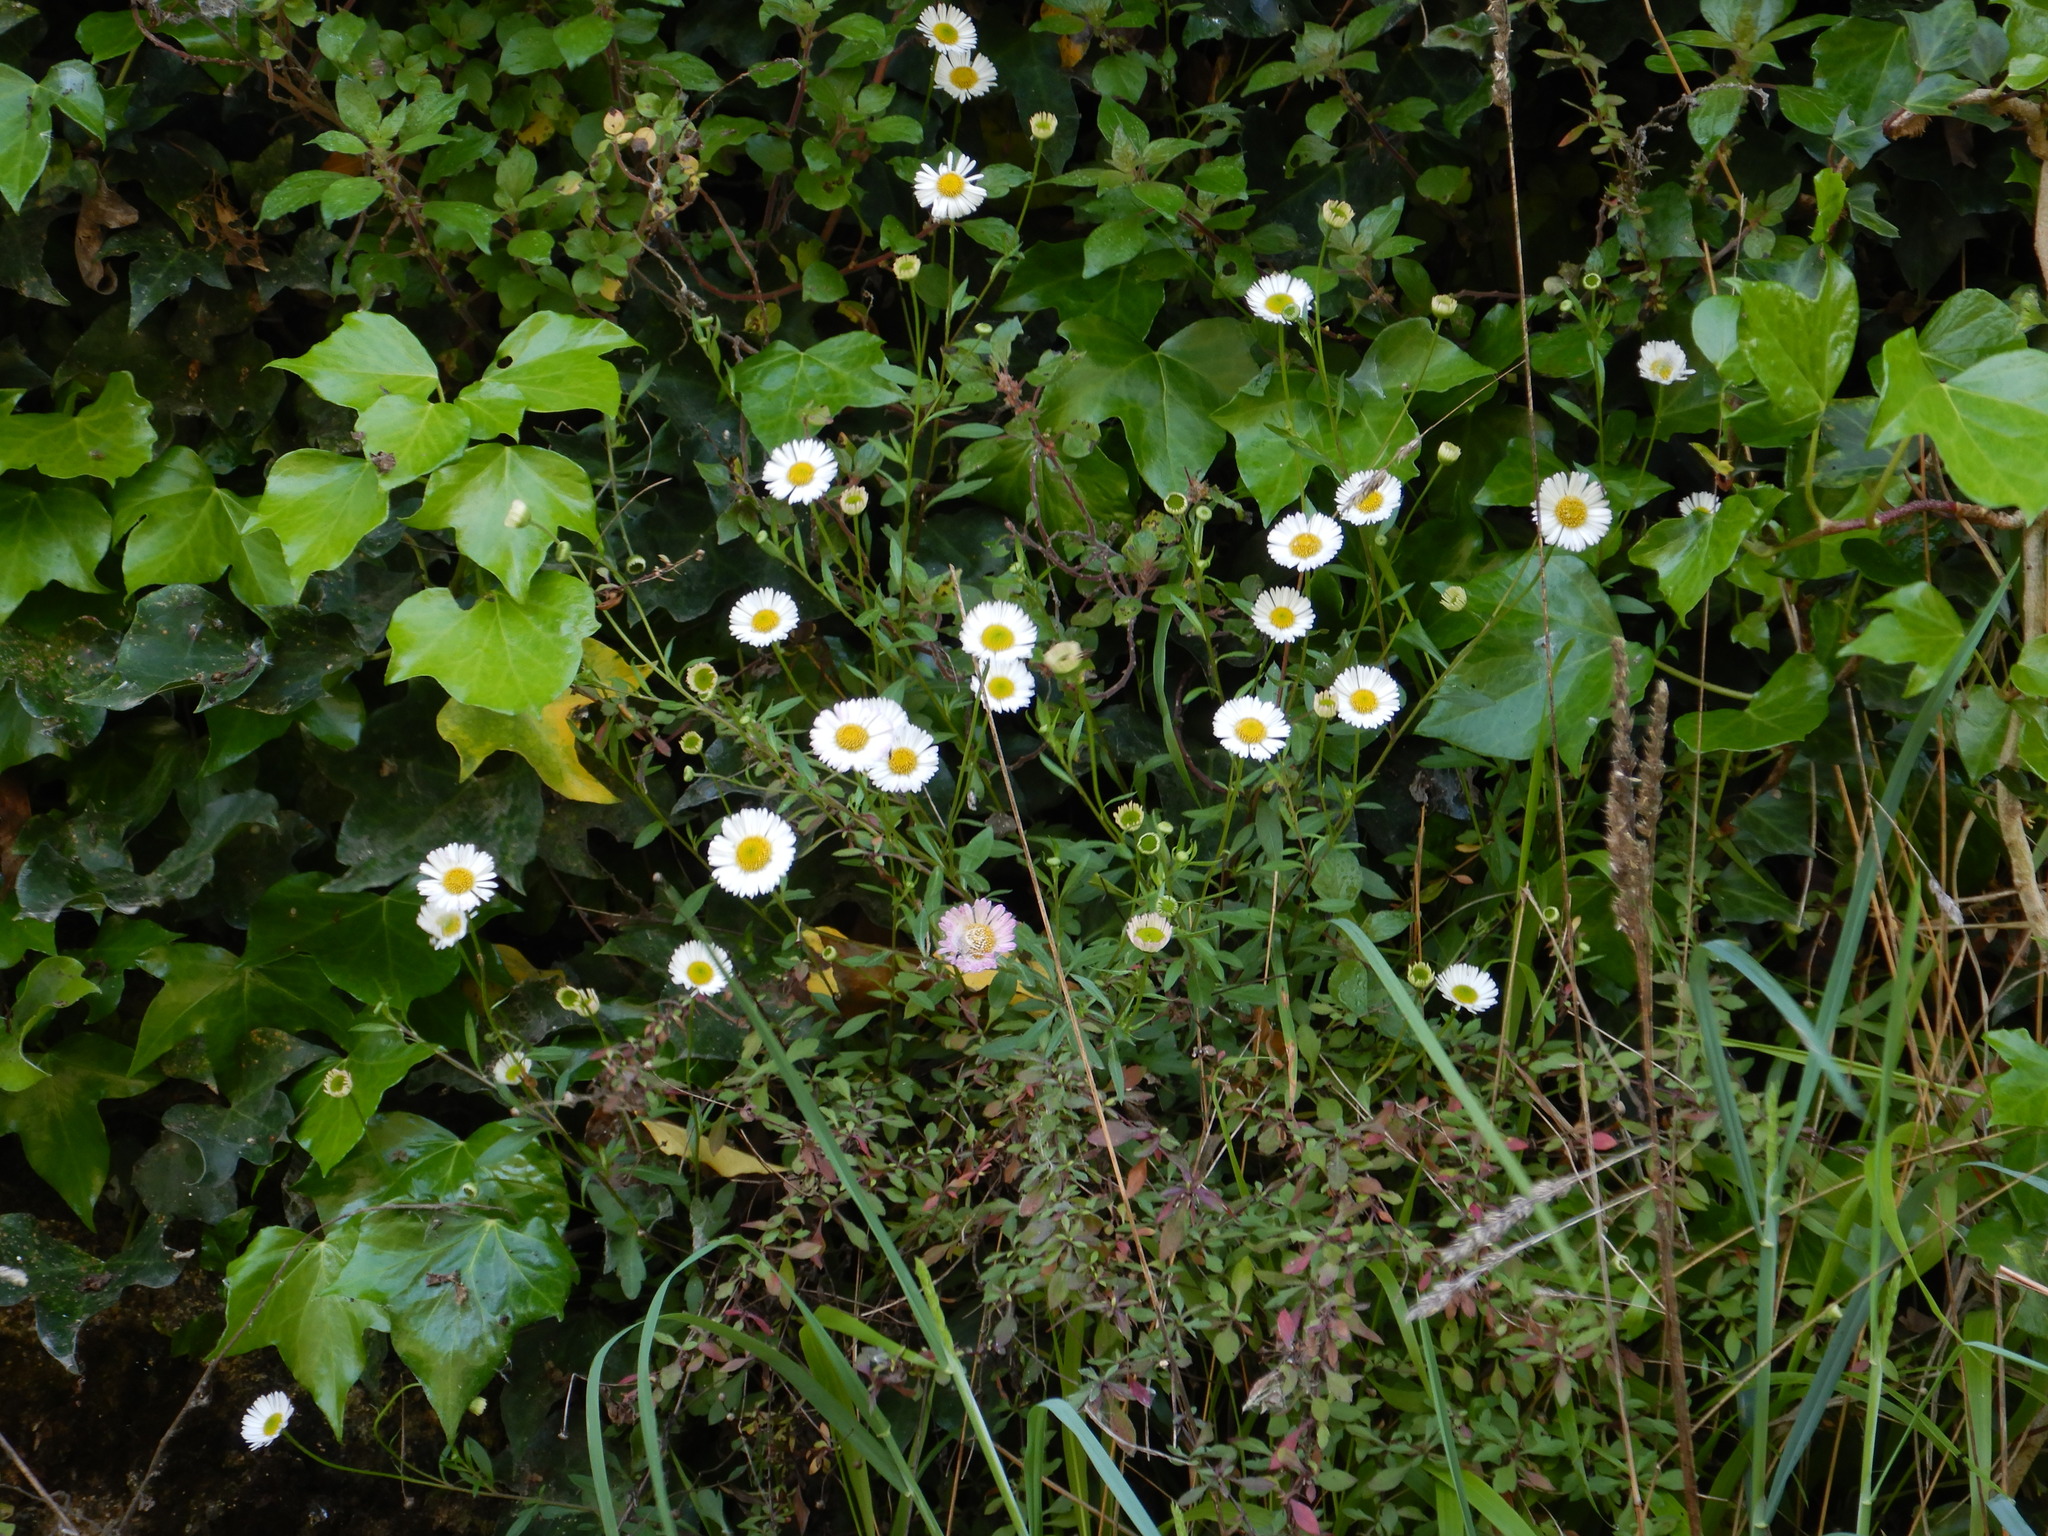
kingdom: Plantae
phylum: Tracheophyta
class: Magnoliopsida
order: Asterales
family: Asteraceae
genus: Erigeron
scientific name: Erigeron karvinskianus
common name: Mexican fleabane
